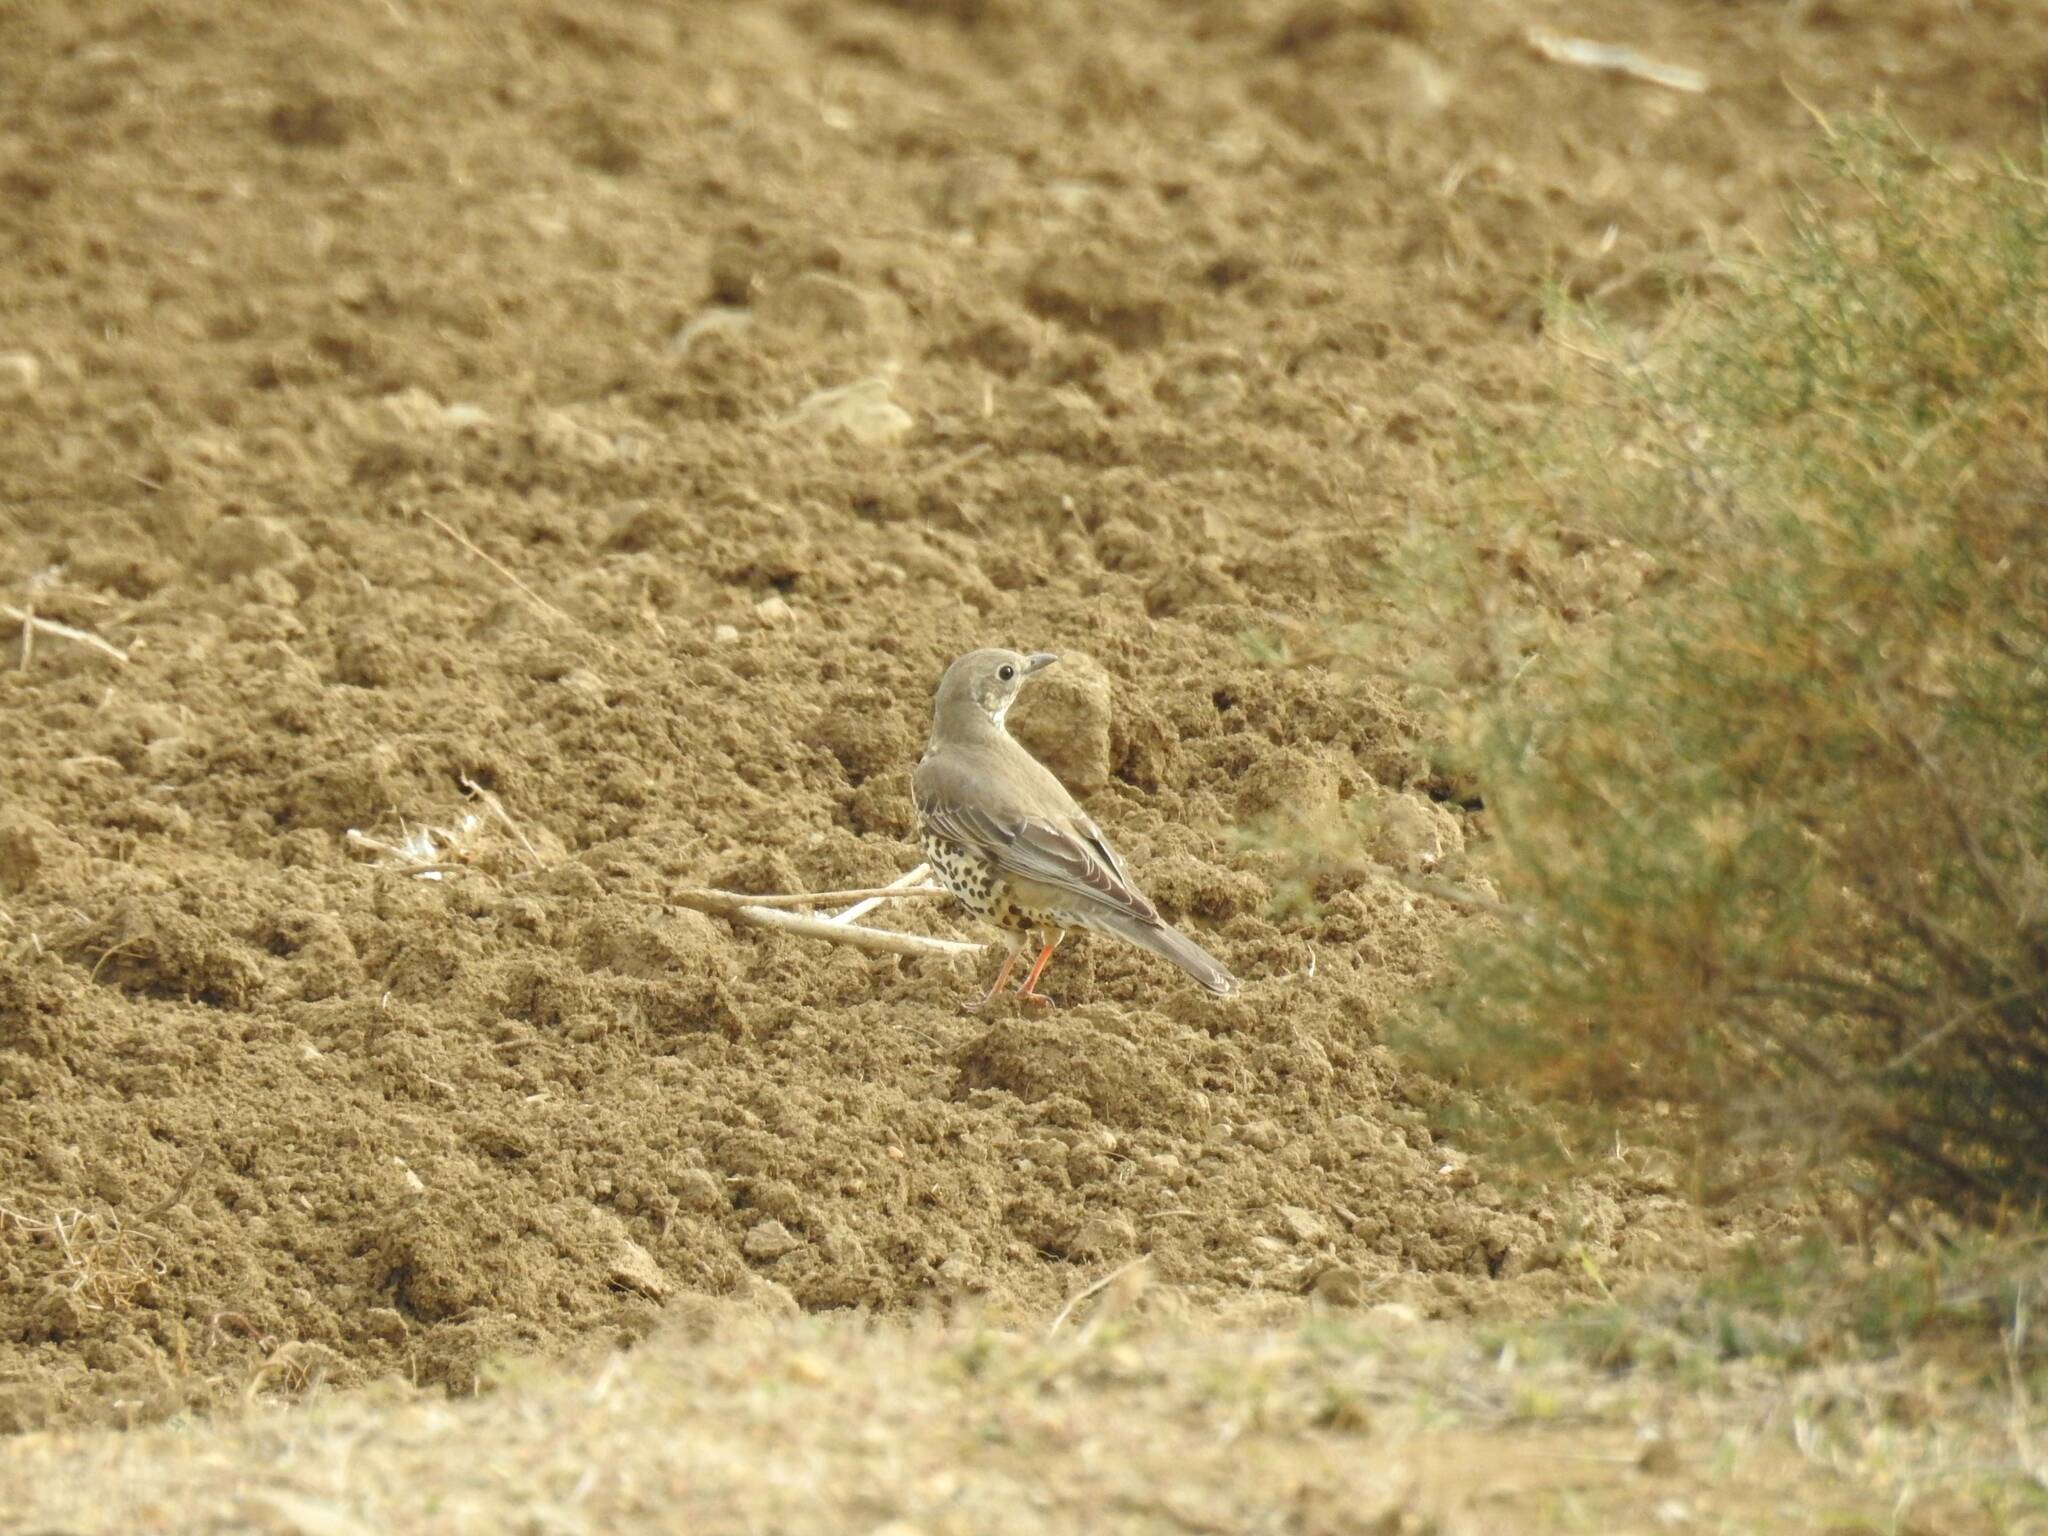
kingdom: Animalia
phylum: Chordata
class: Aves
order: Passeriformes
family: Turdidae
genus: Turdus
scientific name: Turdus viscivorus
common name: Mistle thrush
